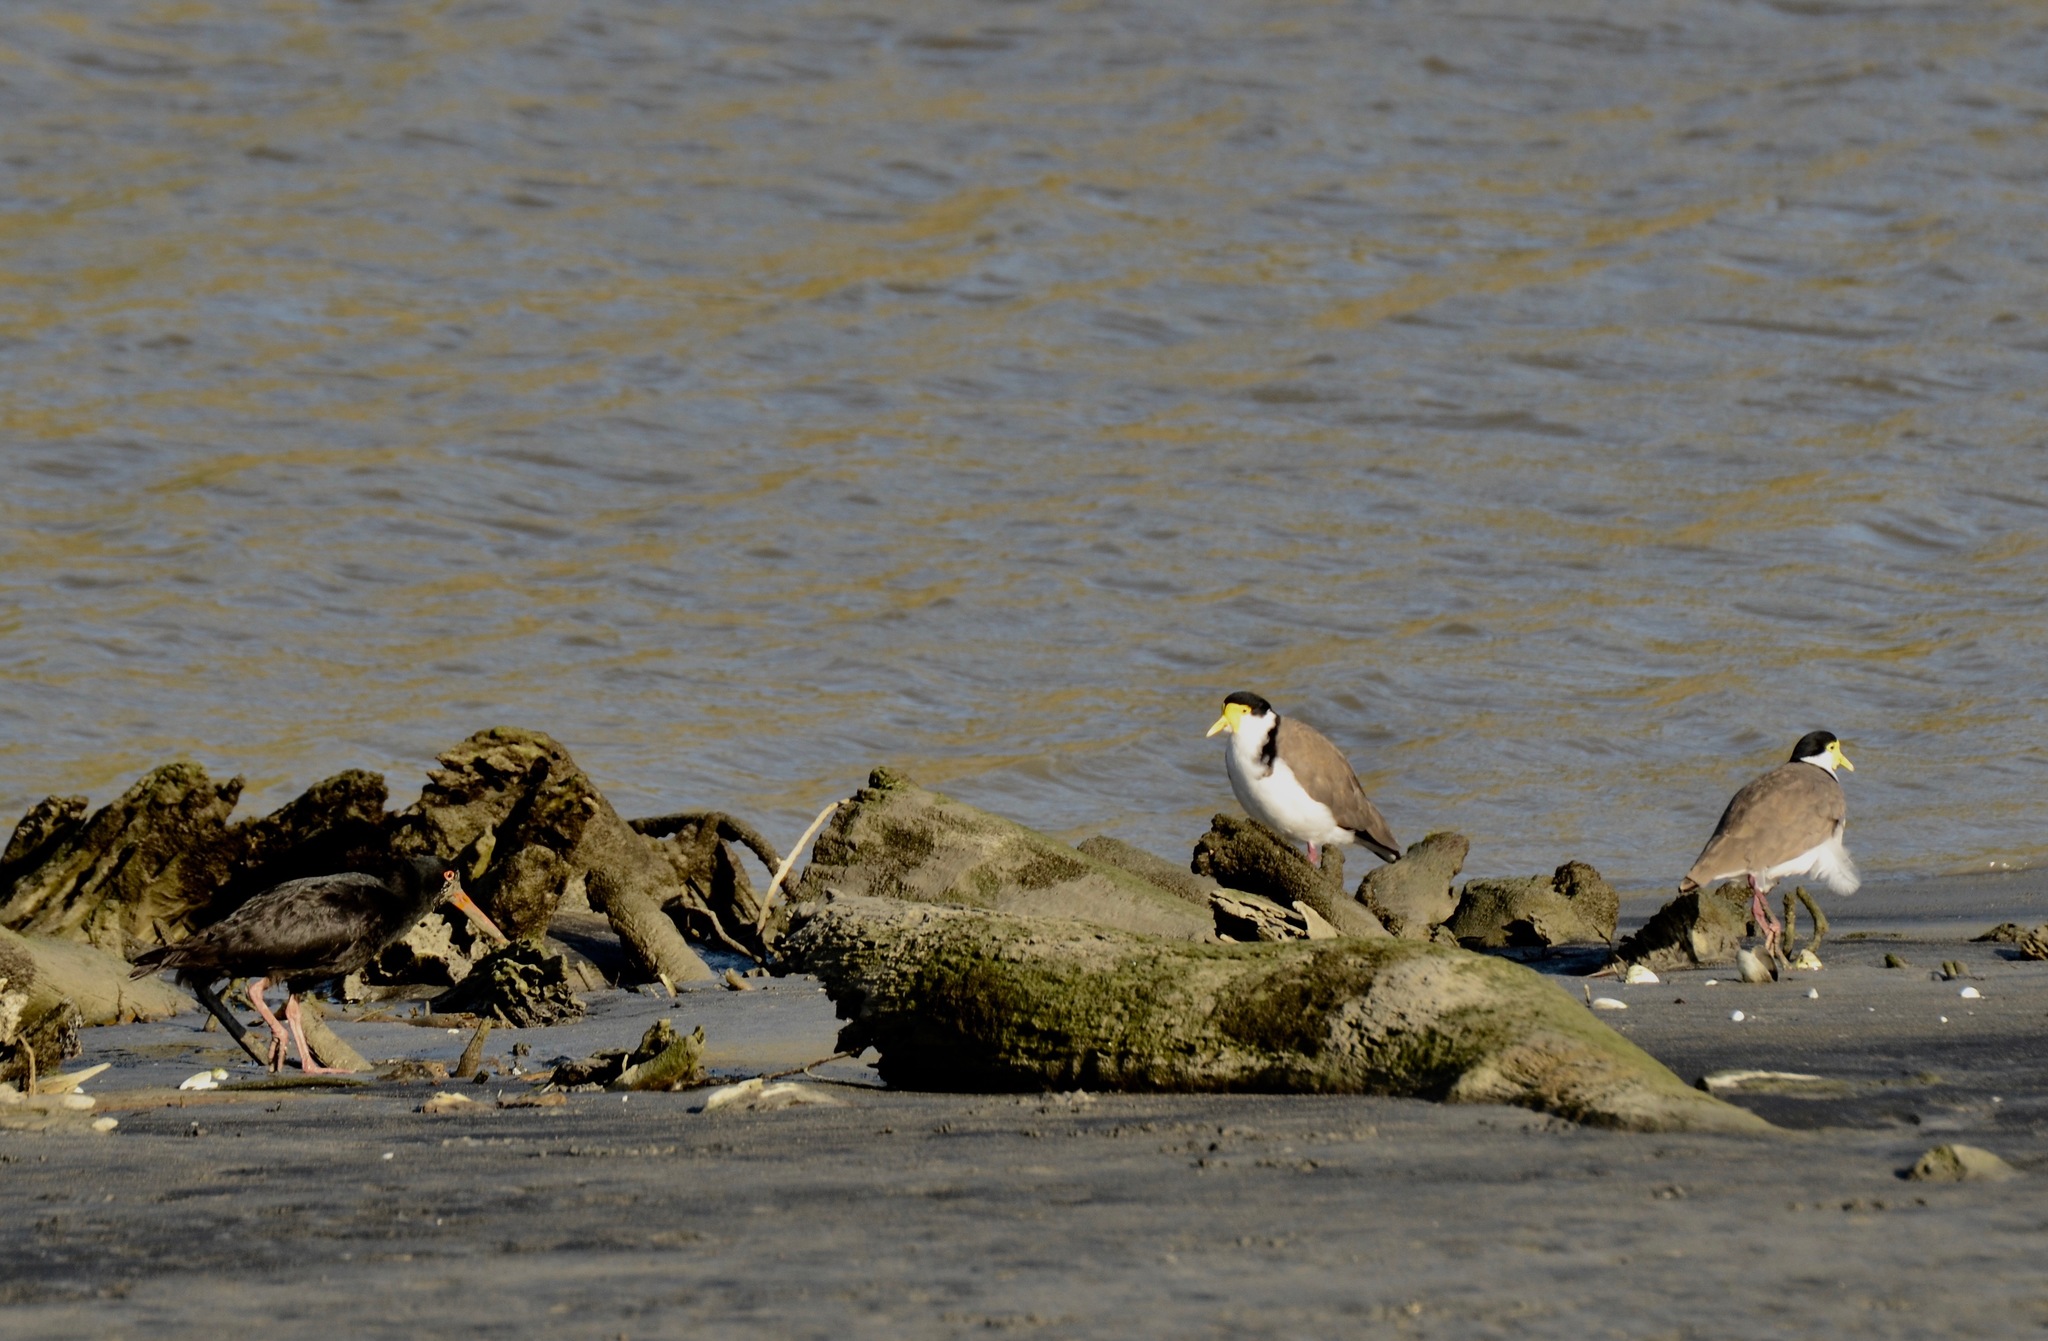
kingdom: Animalia
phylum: Chordata
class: Aves
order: Charadriiformes
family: Charadriidae
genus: Vanellus
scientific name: Vanellus miles
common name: Masked lapwing
